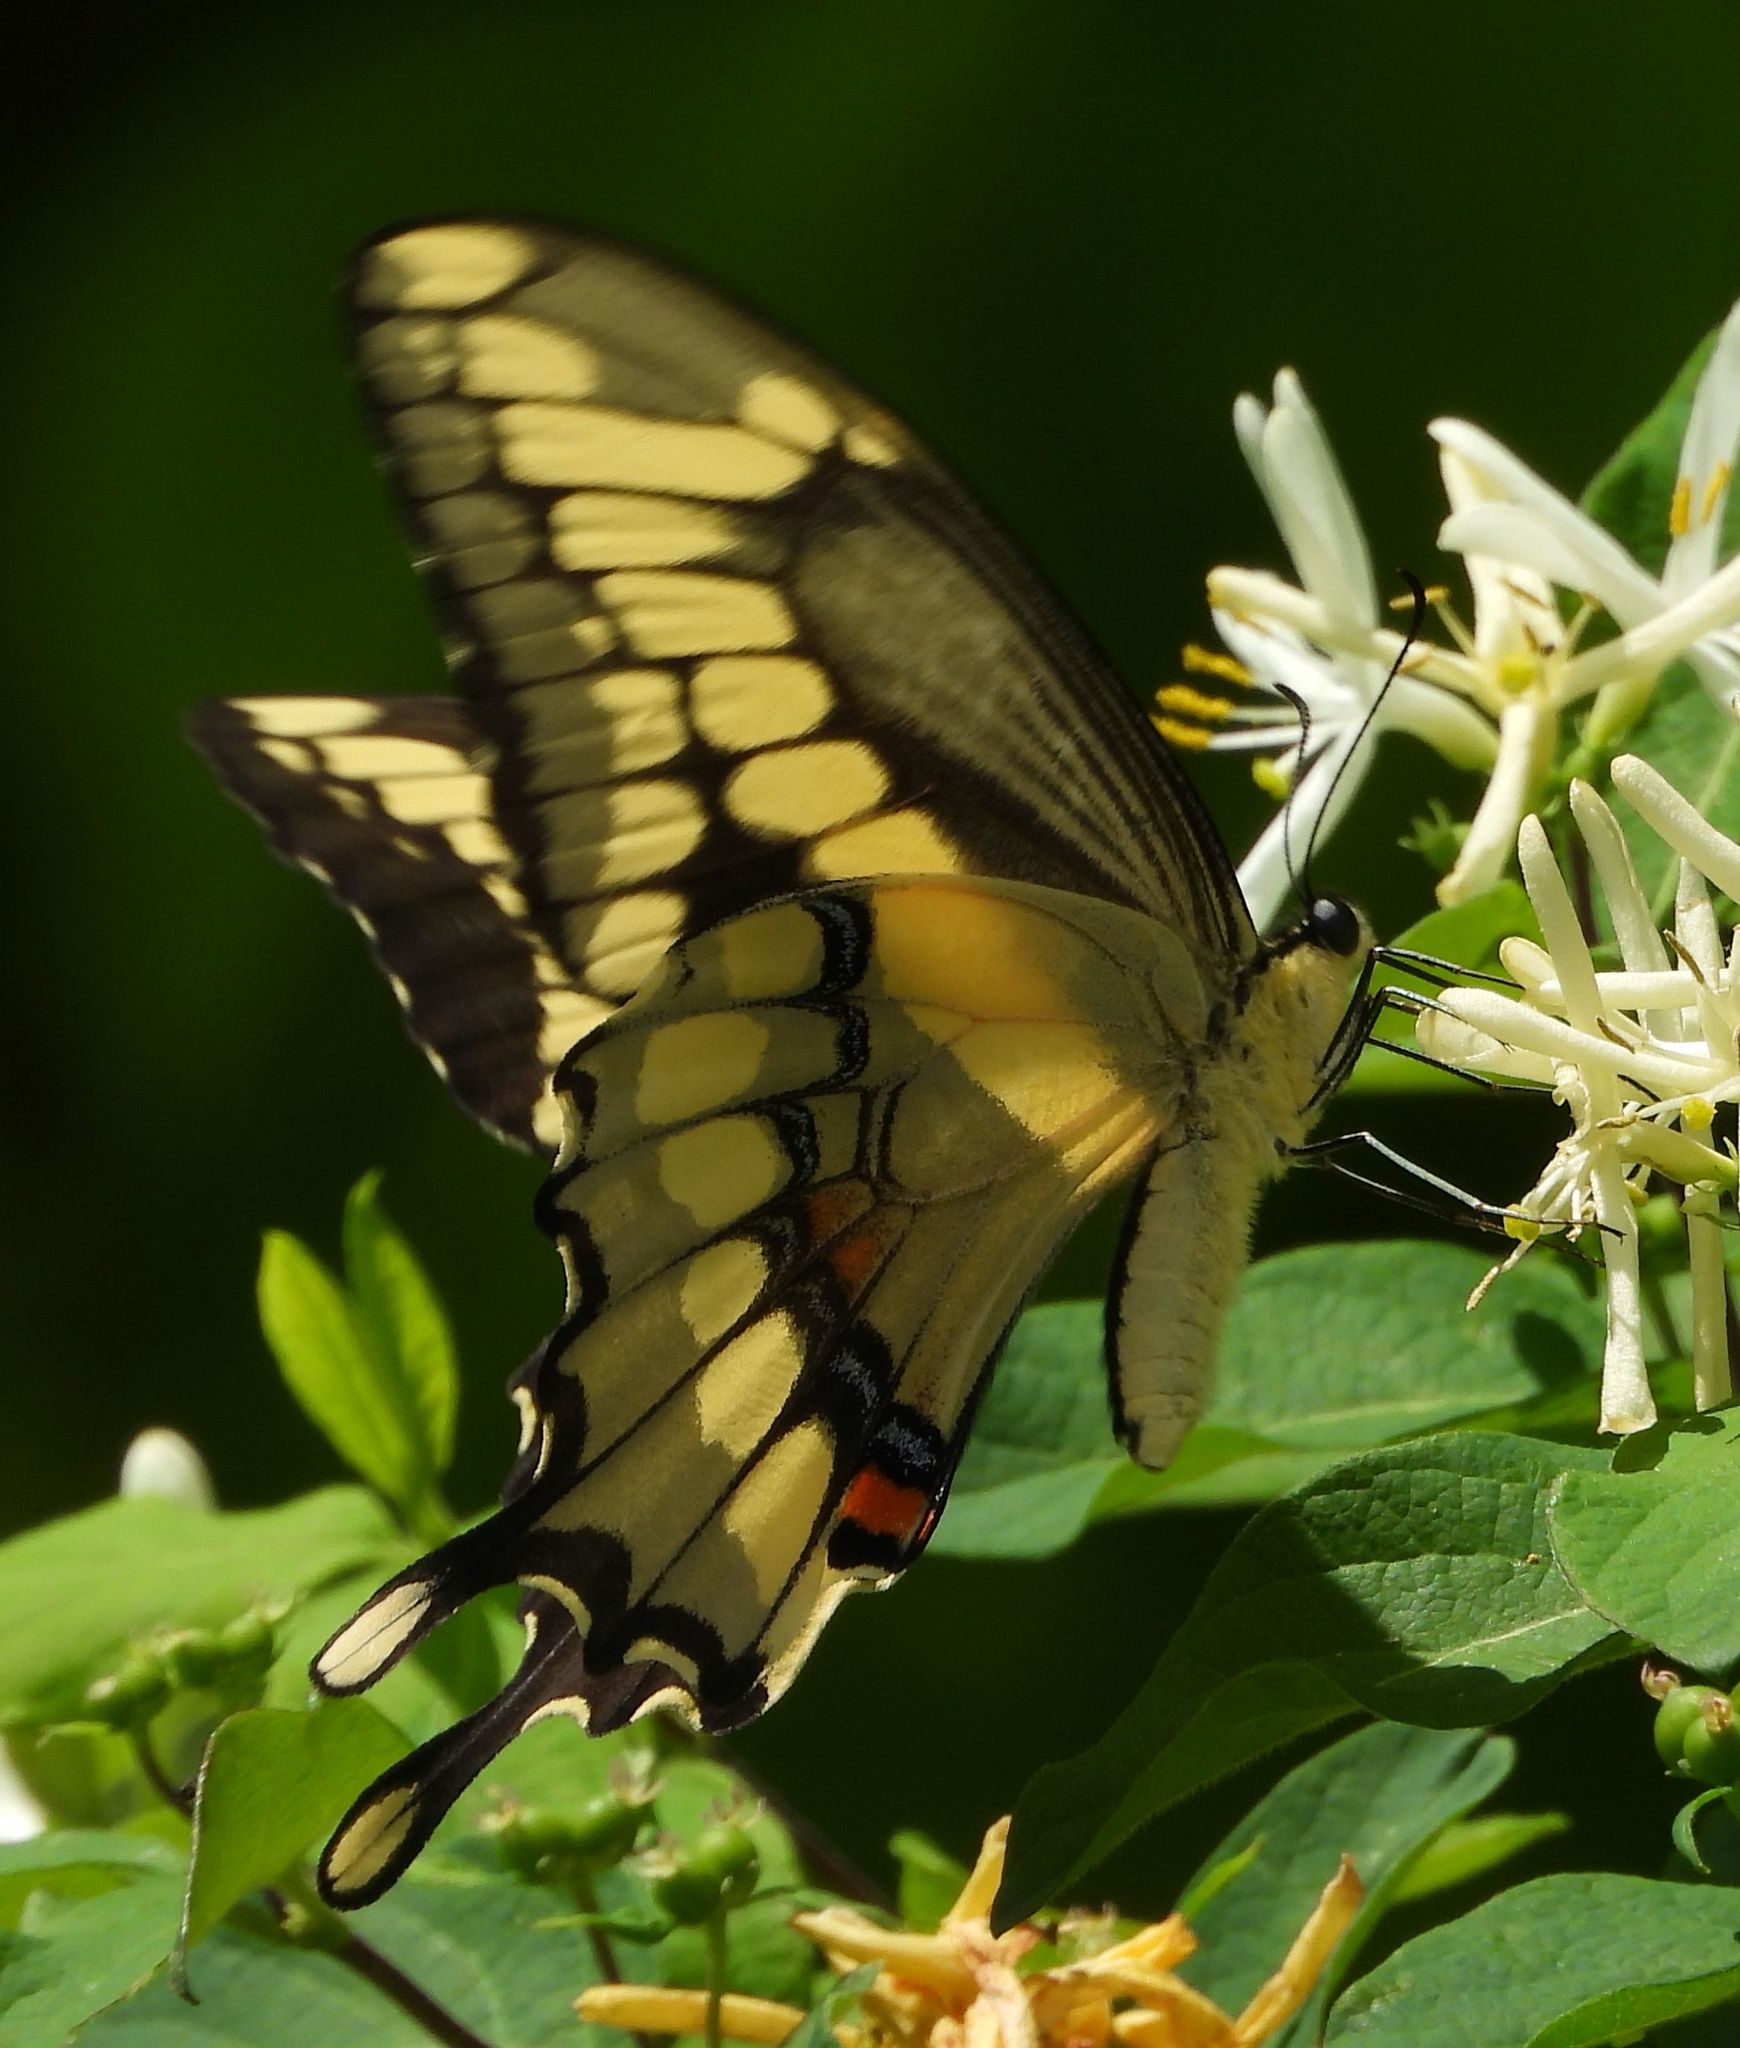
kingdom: Animalia
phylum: Arthropoda
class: Insecta
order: Lepidoptera
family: Papilionidae
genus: Papilio
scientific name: Papilio cresphontes
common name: Giant swallowtail
